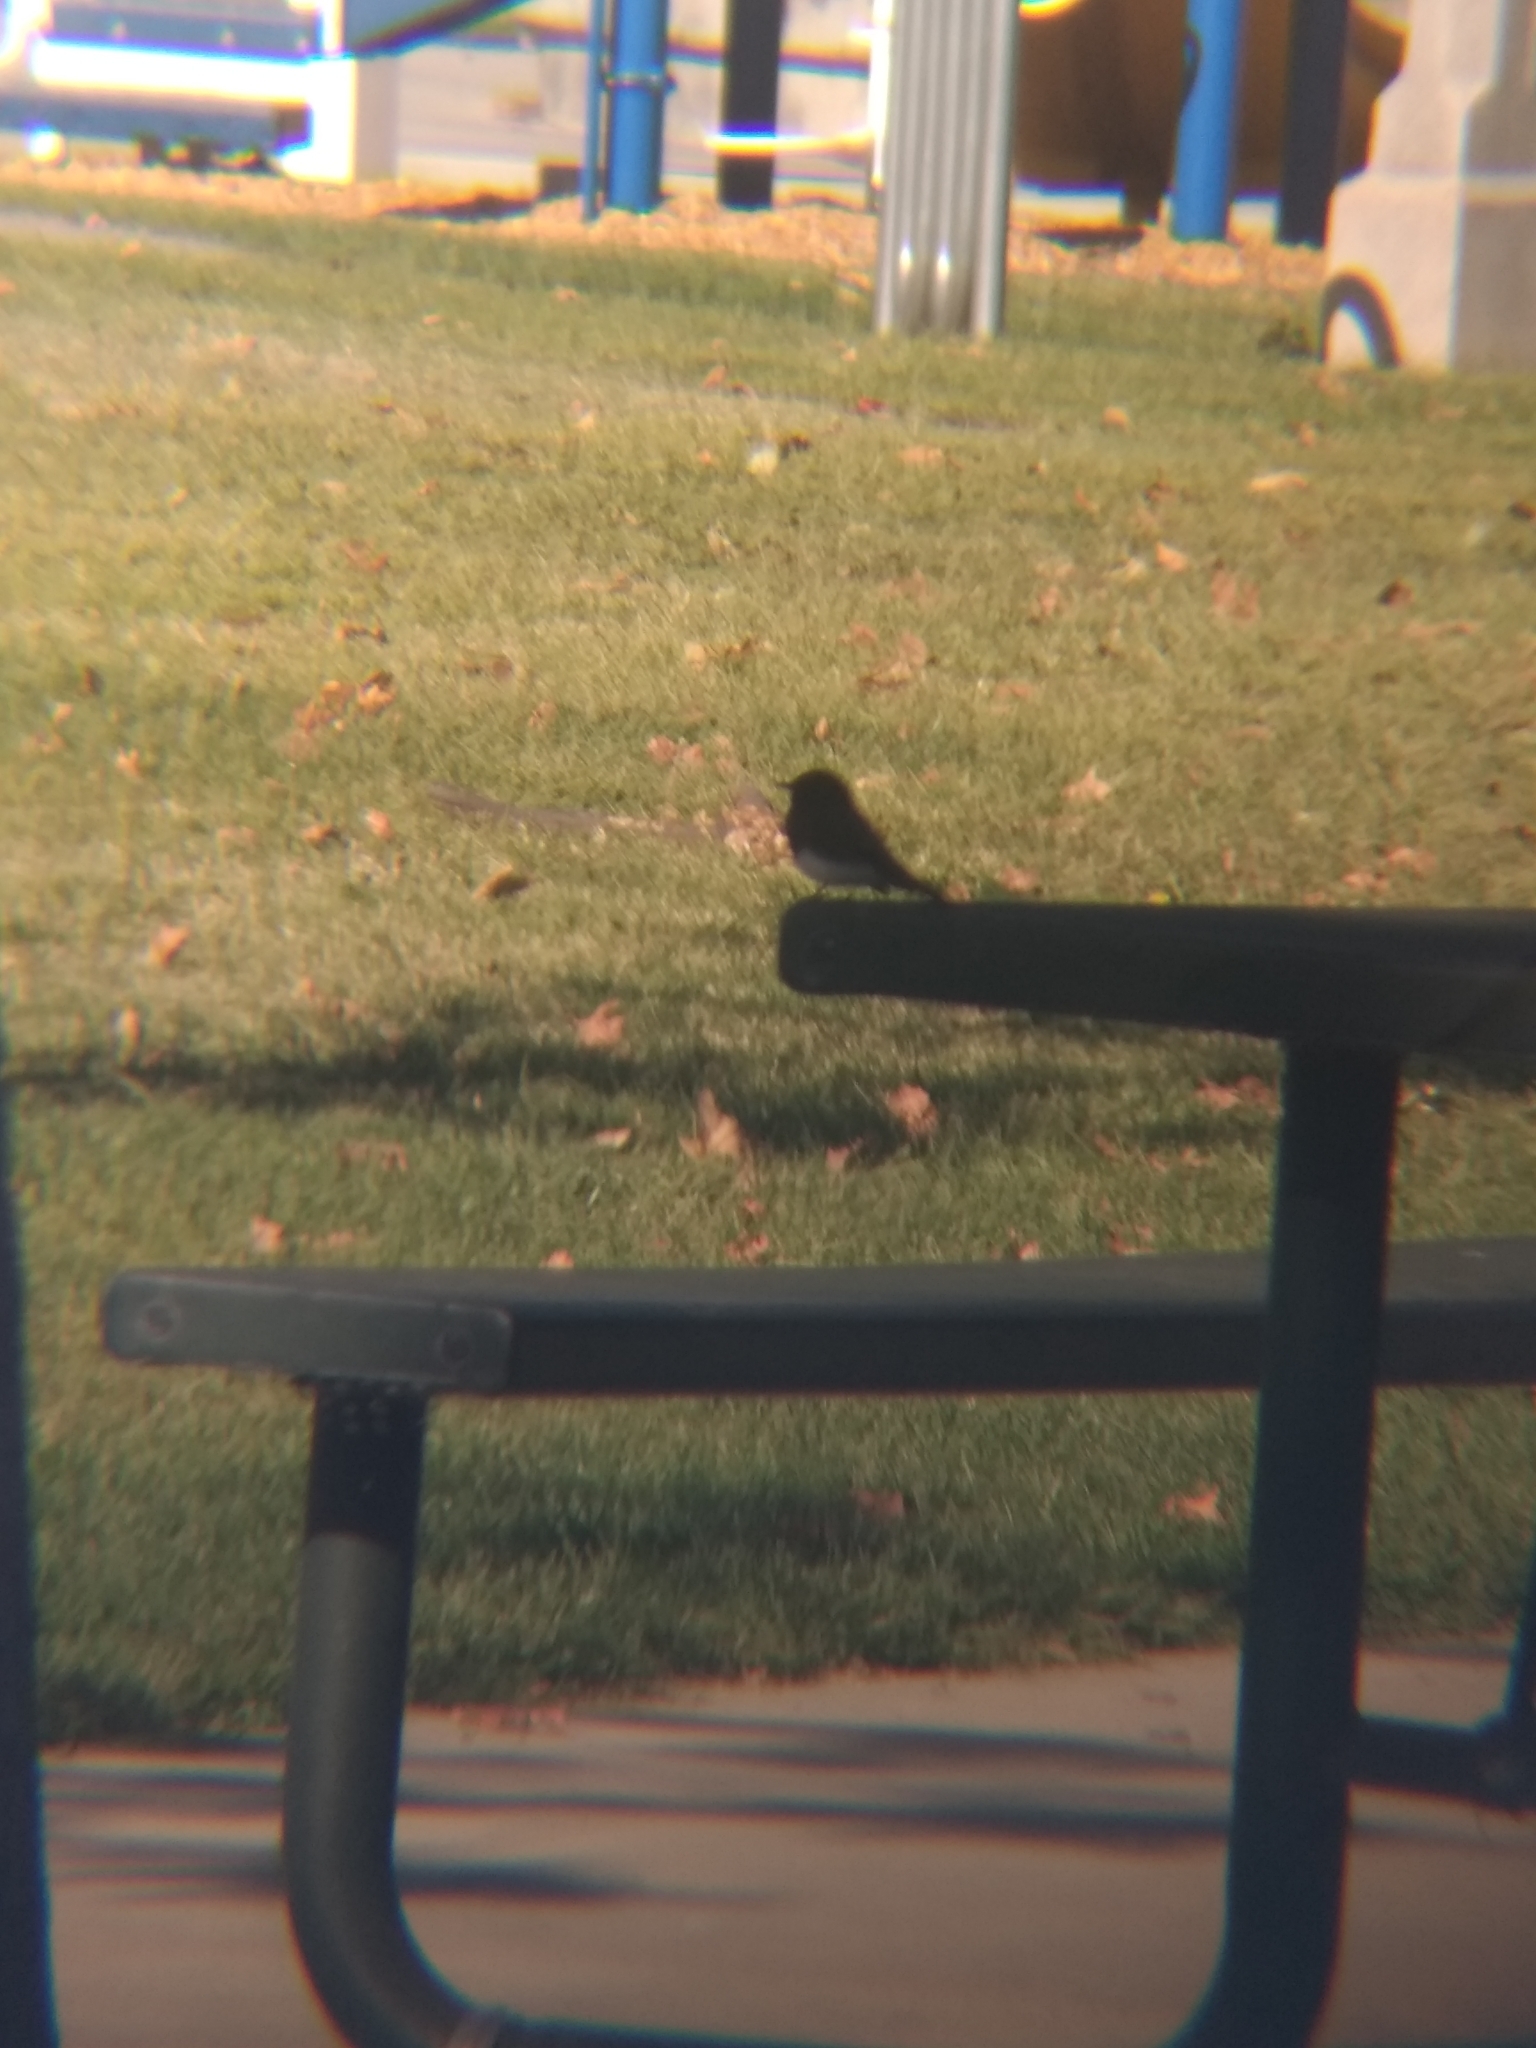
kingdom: Animalia
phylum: Chordata
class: Aves
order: Passeriformes
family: Tyrannidae
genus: Sayornis
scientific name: Sayornis nigricans
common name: Black phoebe
